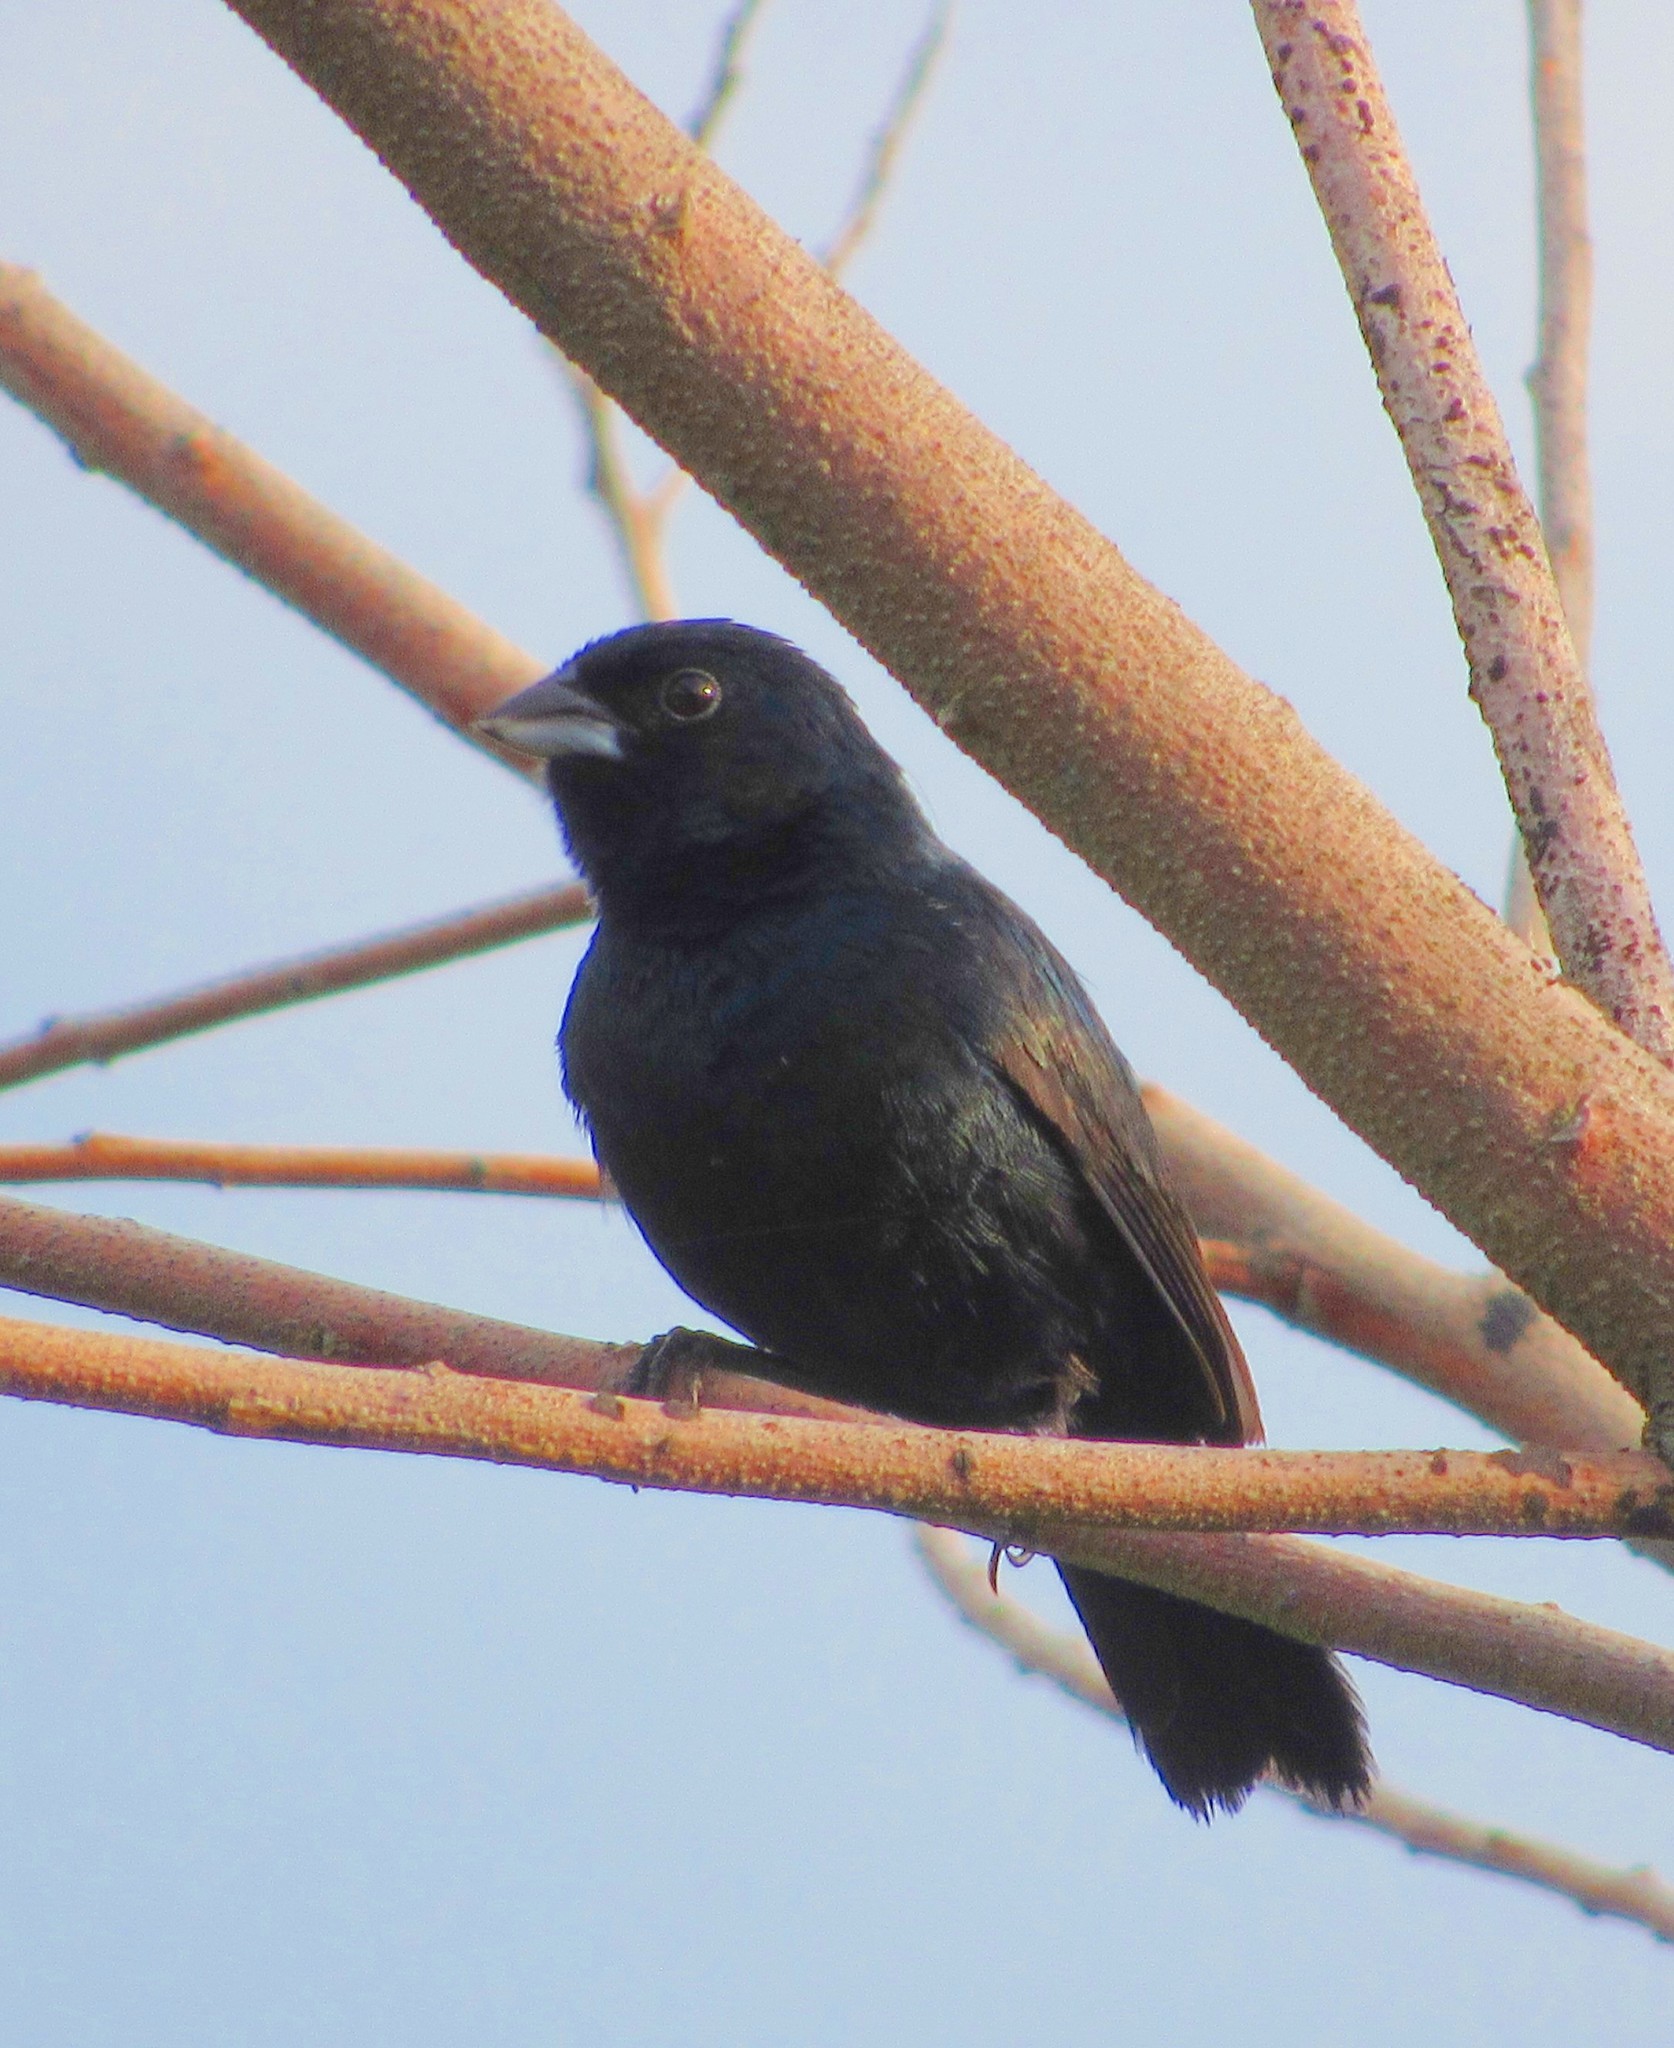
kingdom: Animalia
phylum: Chordata
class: Aves
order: Passeriformes
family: Thraupidae
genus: Volatinia
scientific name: Volatinia jacarina
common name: Blue-black grassquit
